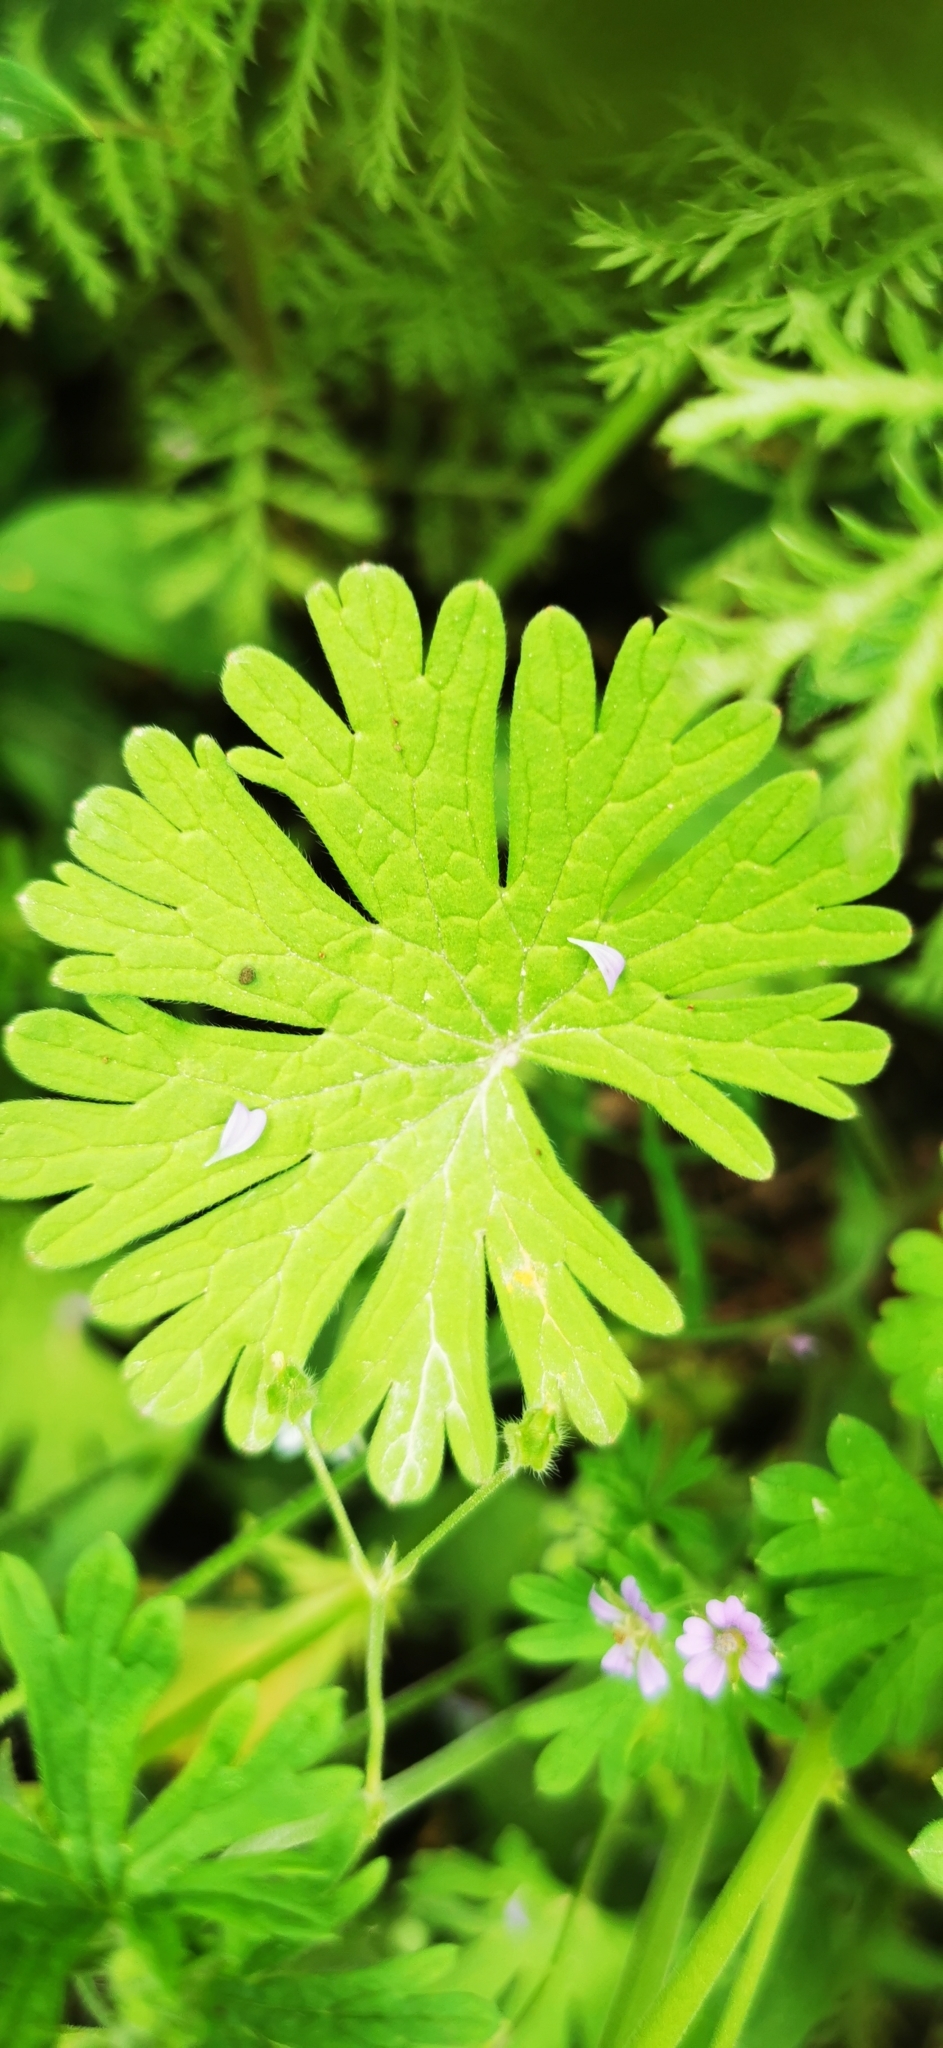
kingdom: Plantae
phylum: Tracheophyta
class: Magnoliopsida
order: Geraniales
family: Geraniaceae
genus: Geranium
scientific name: Geranium pusillum
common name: Small geranium
